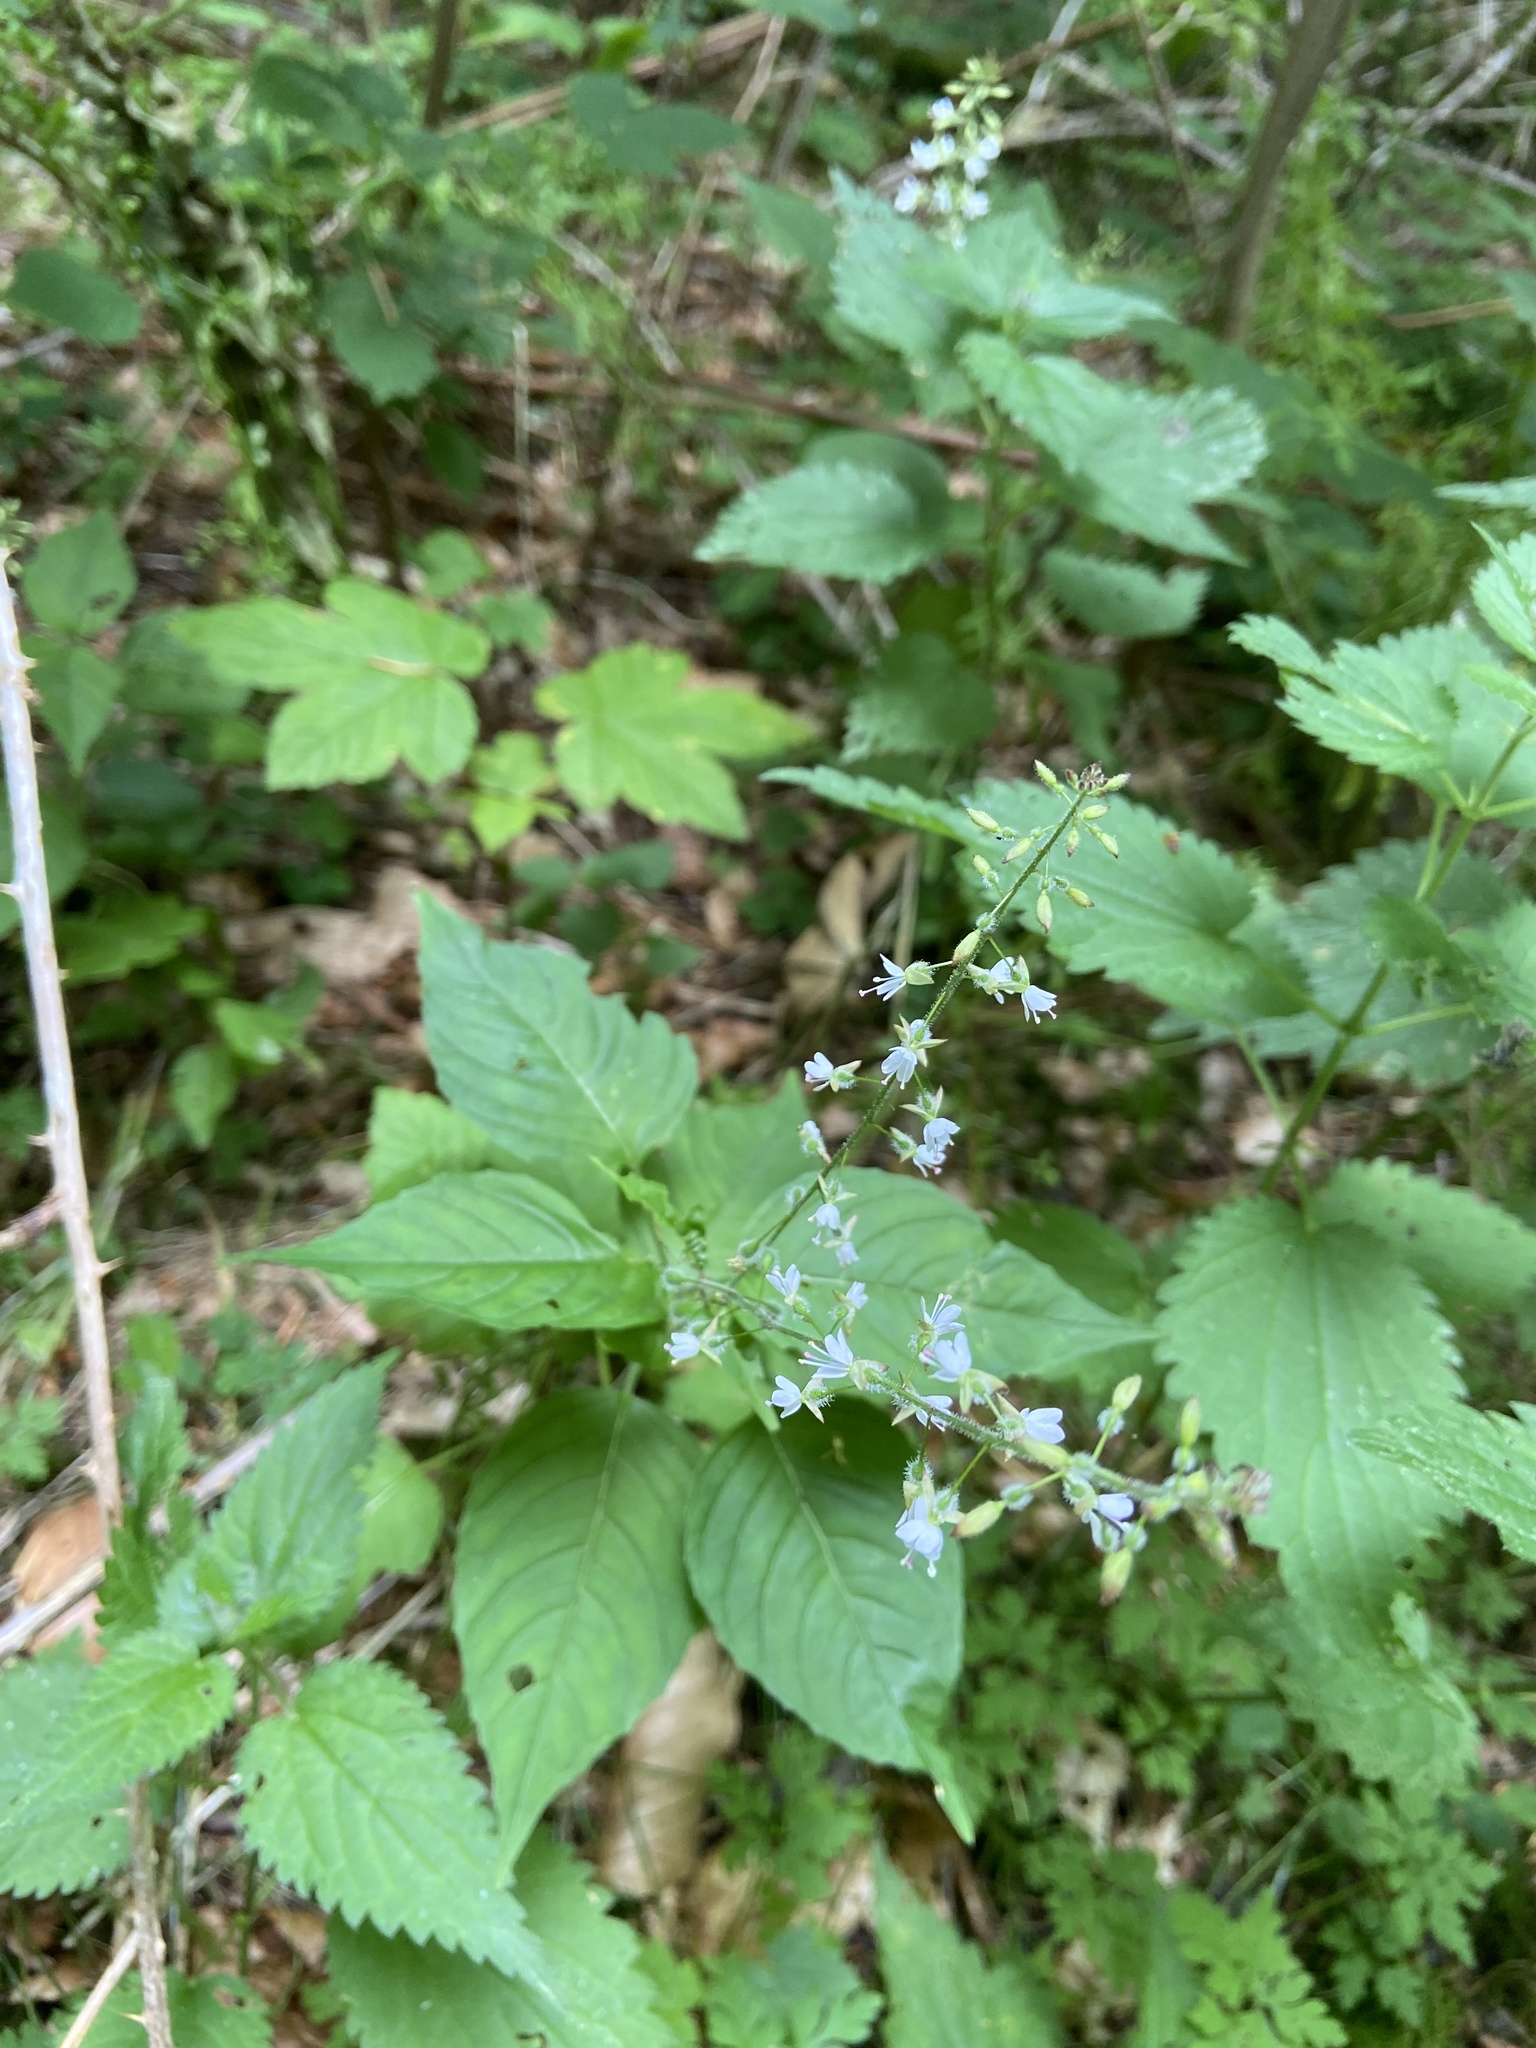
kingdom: Plantae
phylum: Tracheophyta
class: Magnoliopsida
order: Myrtales
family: Onagraceae
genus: Circaea
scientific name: Circaea lutetiana
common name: Enchanter's-nightshade
